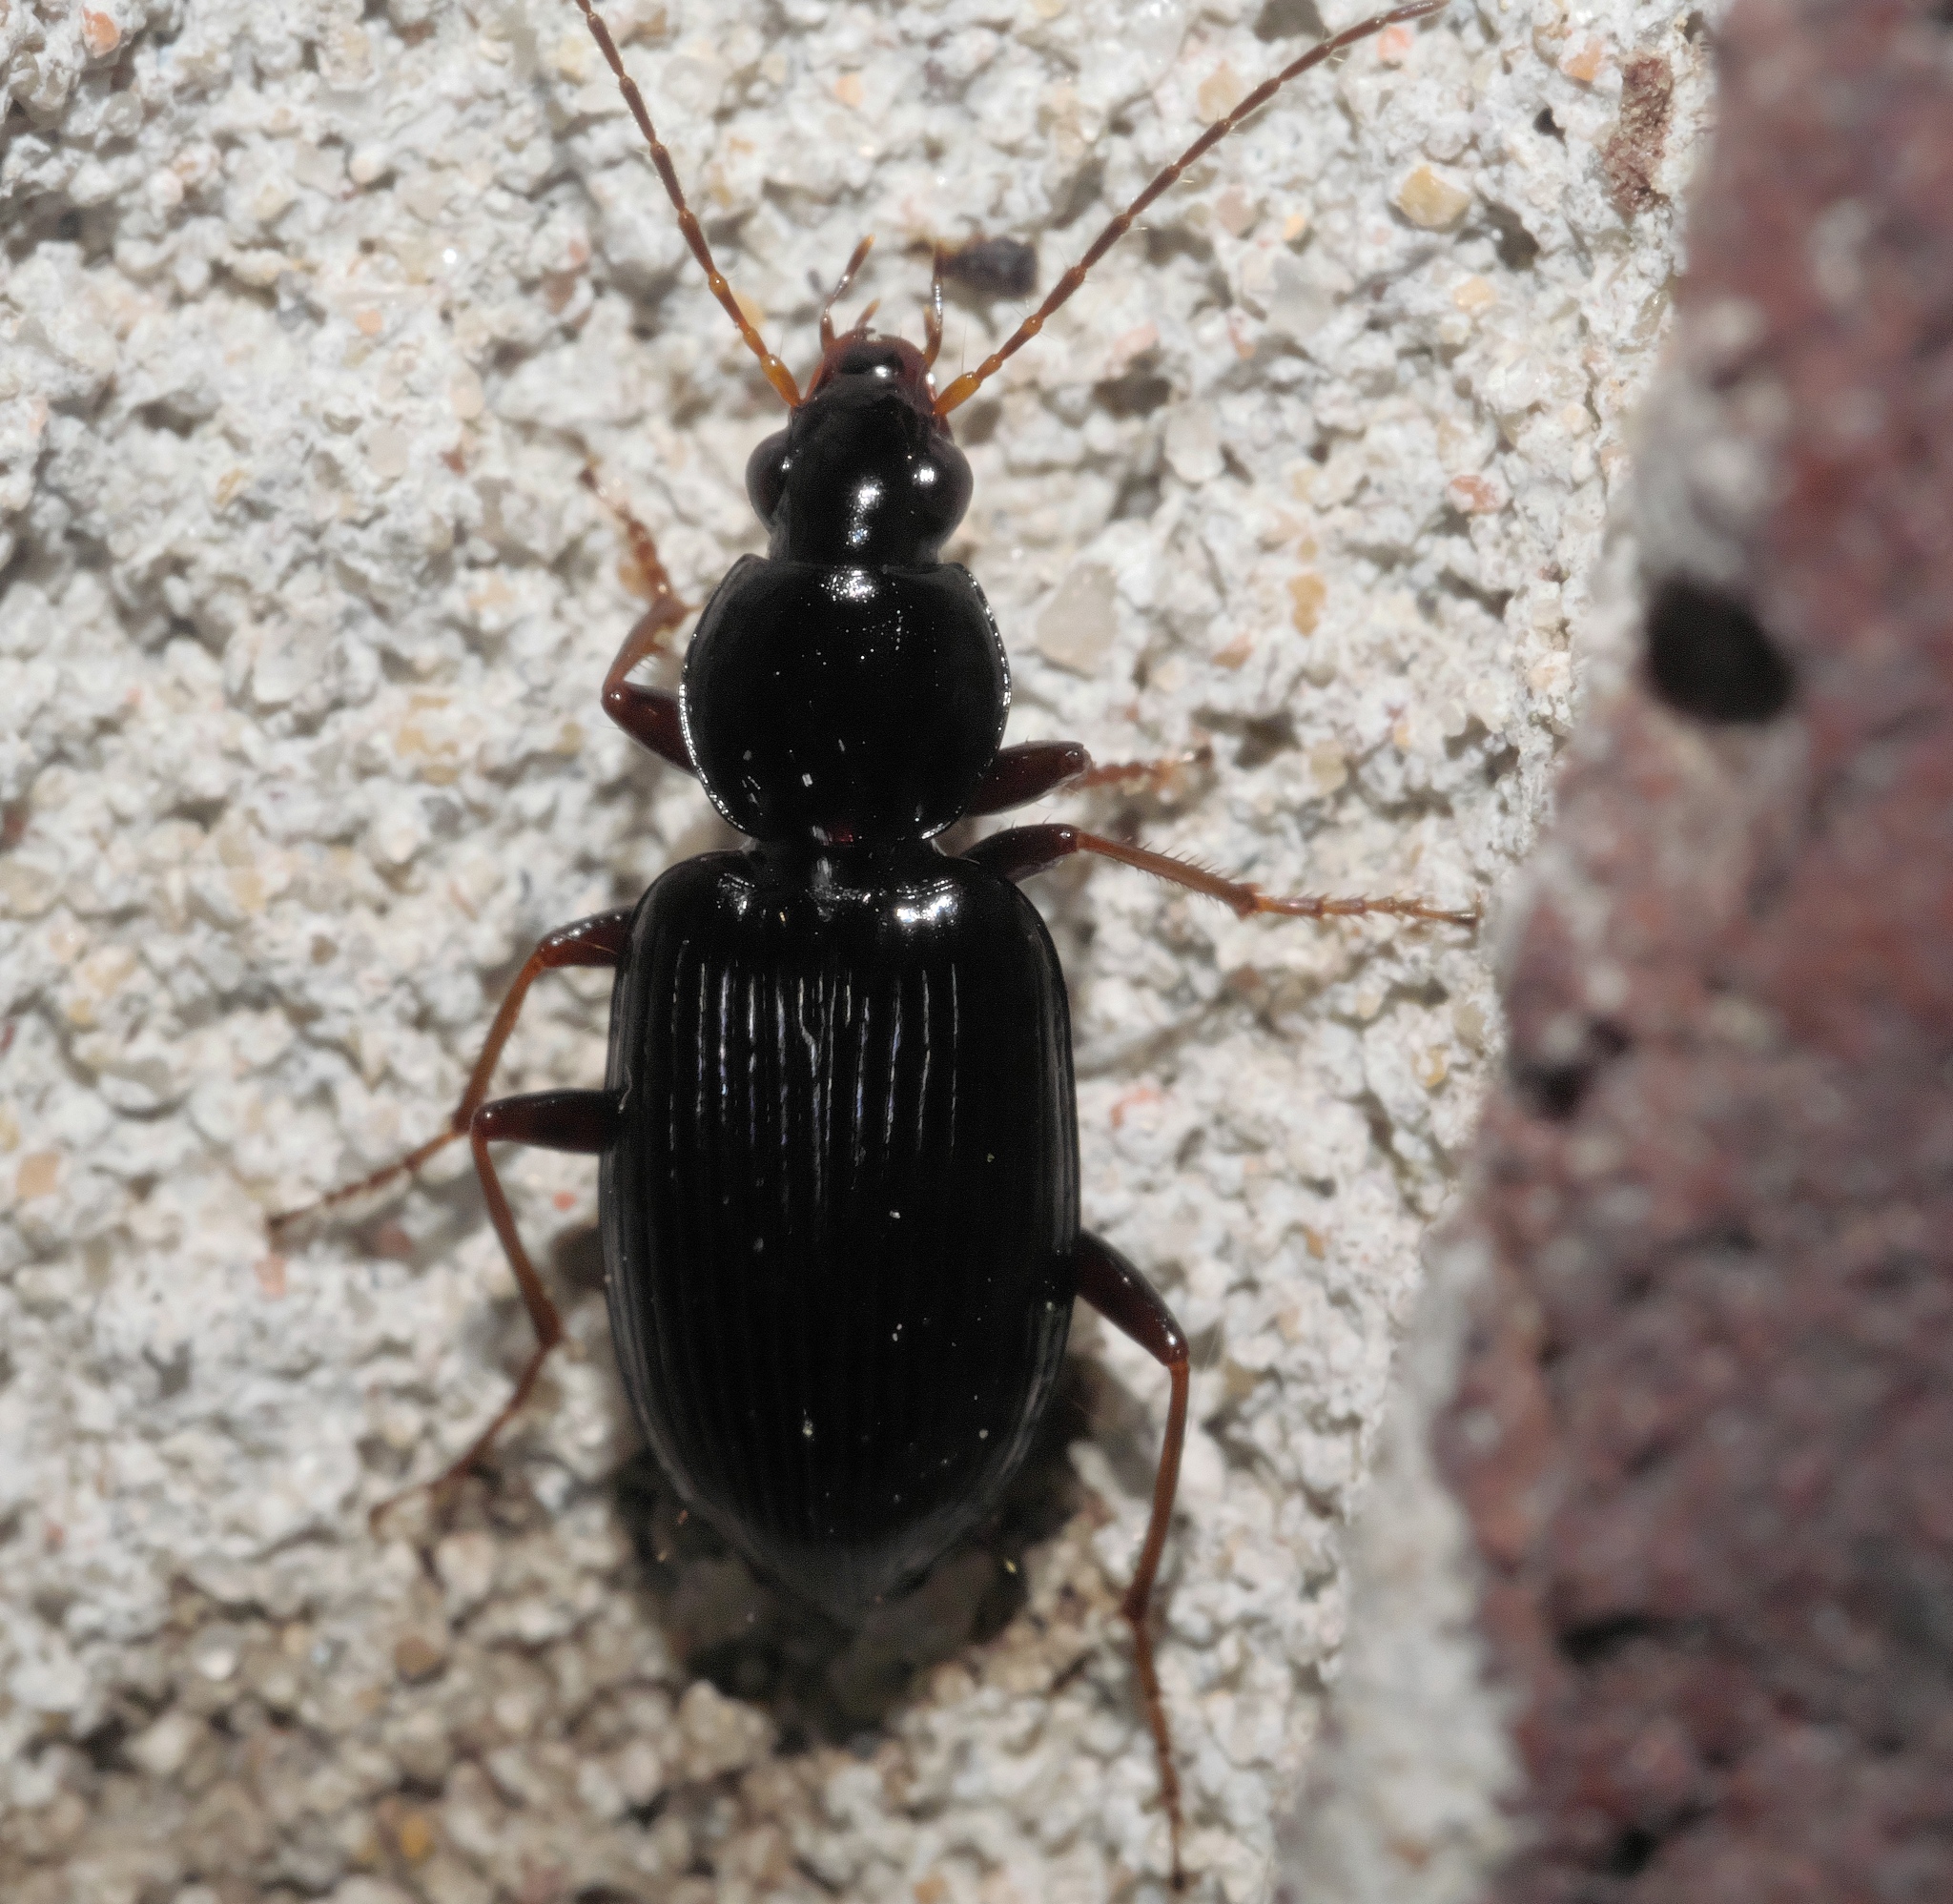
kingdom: Animalia
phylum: Arthropoda
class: Insecta
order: Coleoptera
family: Carabidae
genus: Agonum
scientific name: Agonum punctiforme
